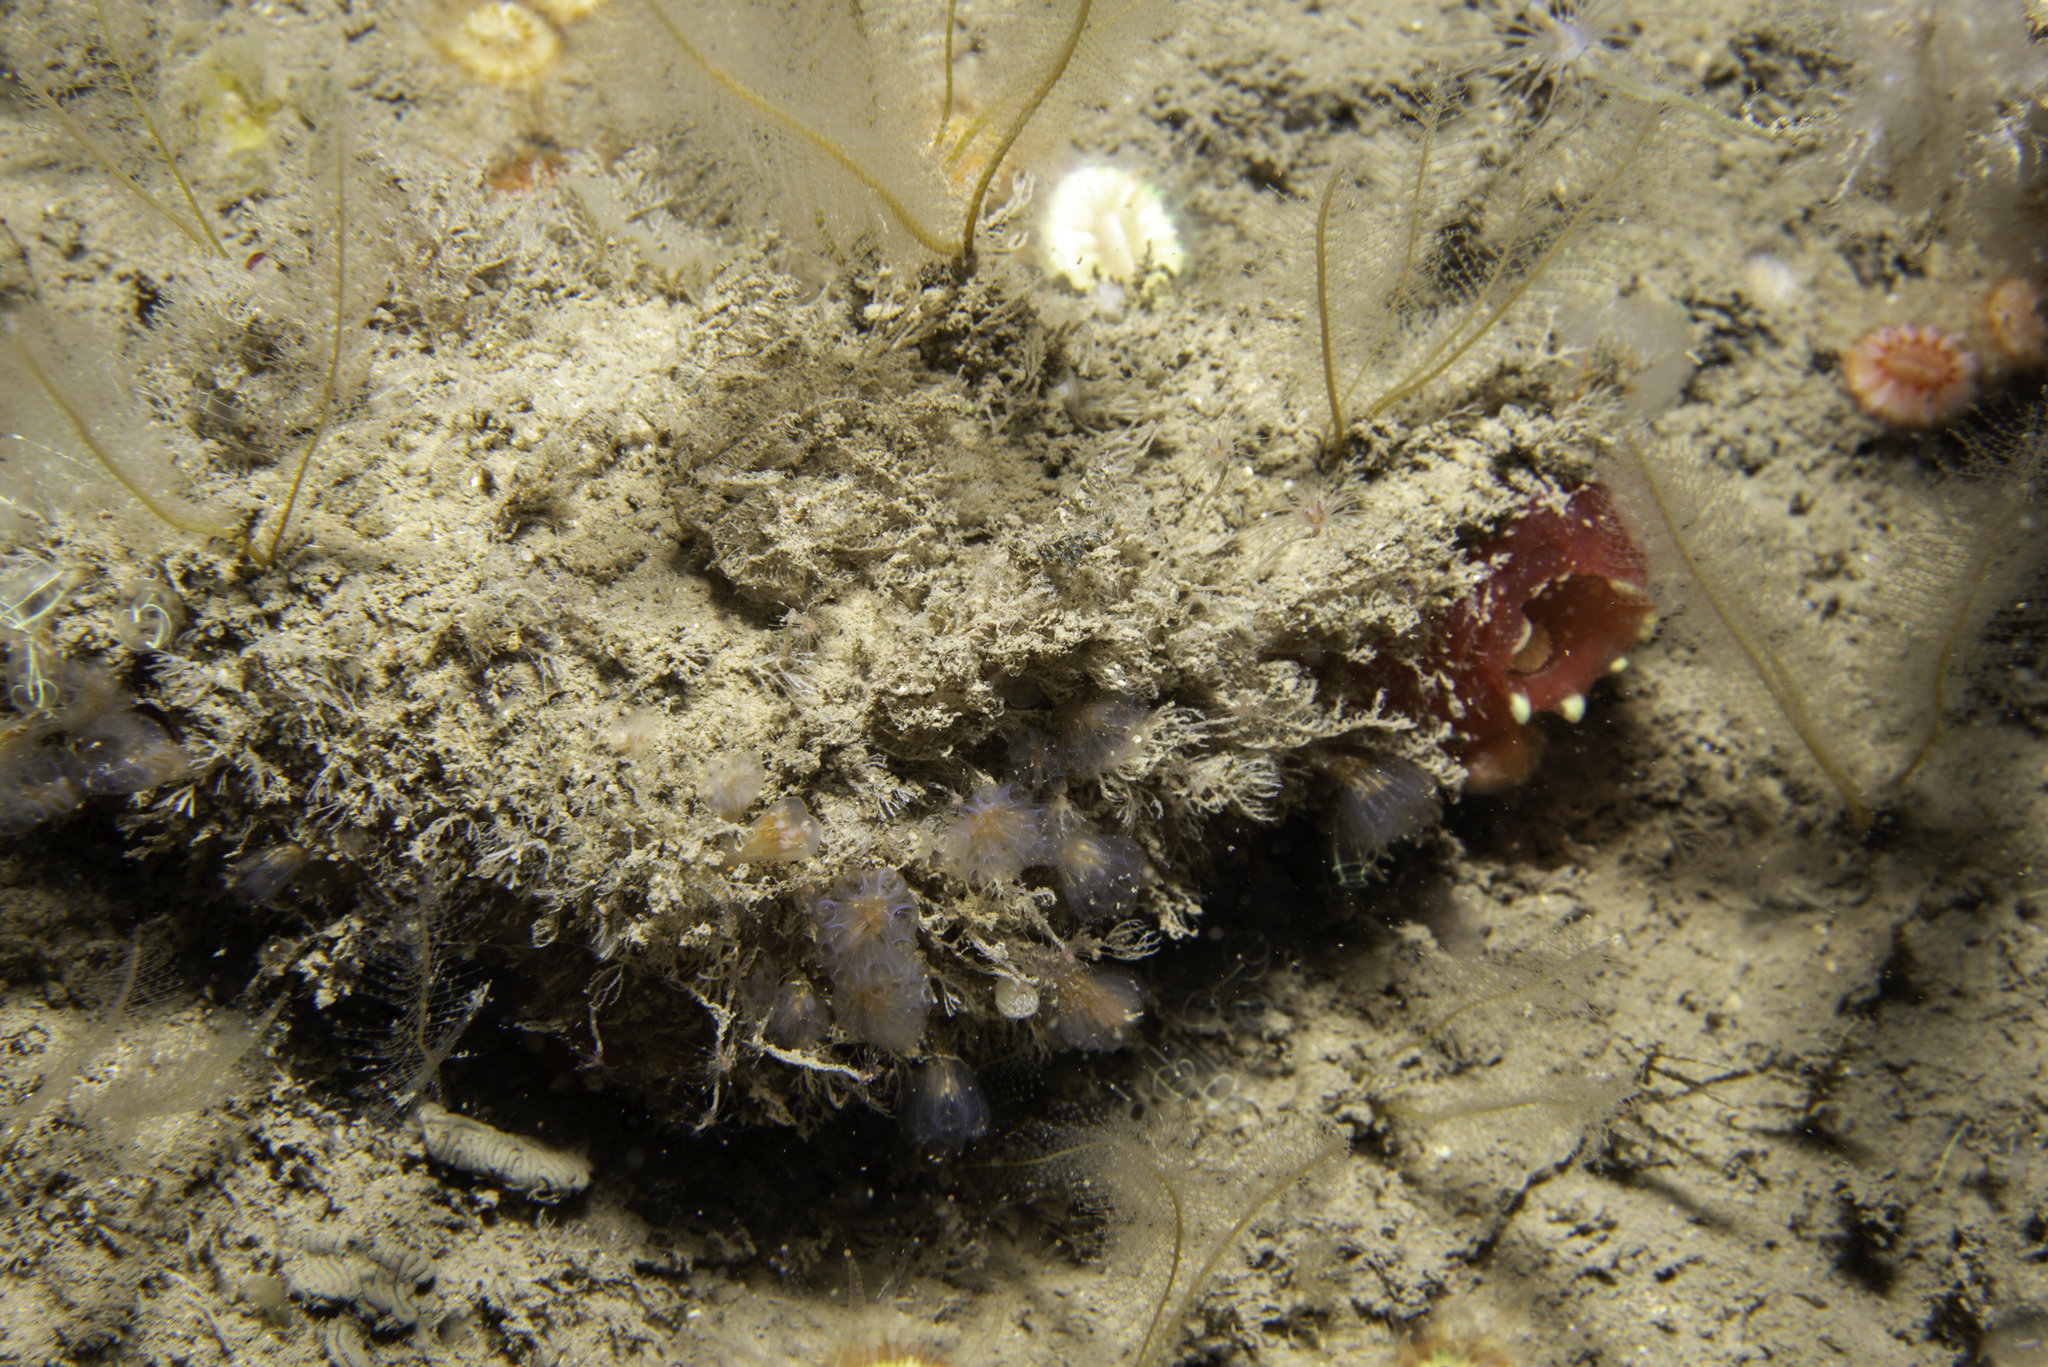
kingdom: Animalia
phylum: Chordata
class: Ascidiacea
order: Aplousobranchia
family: Polyclinidae
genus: Aplidium
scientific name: Aplidium punctum
